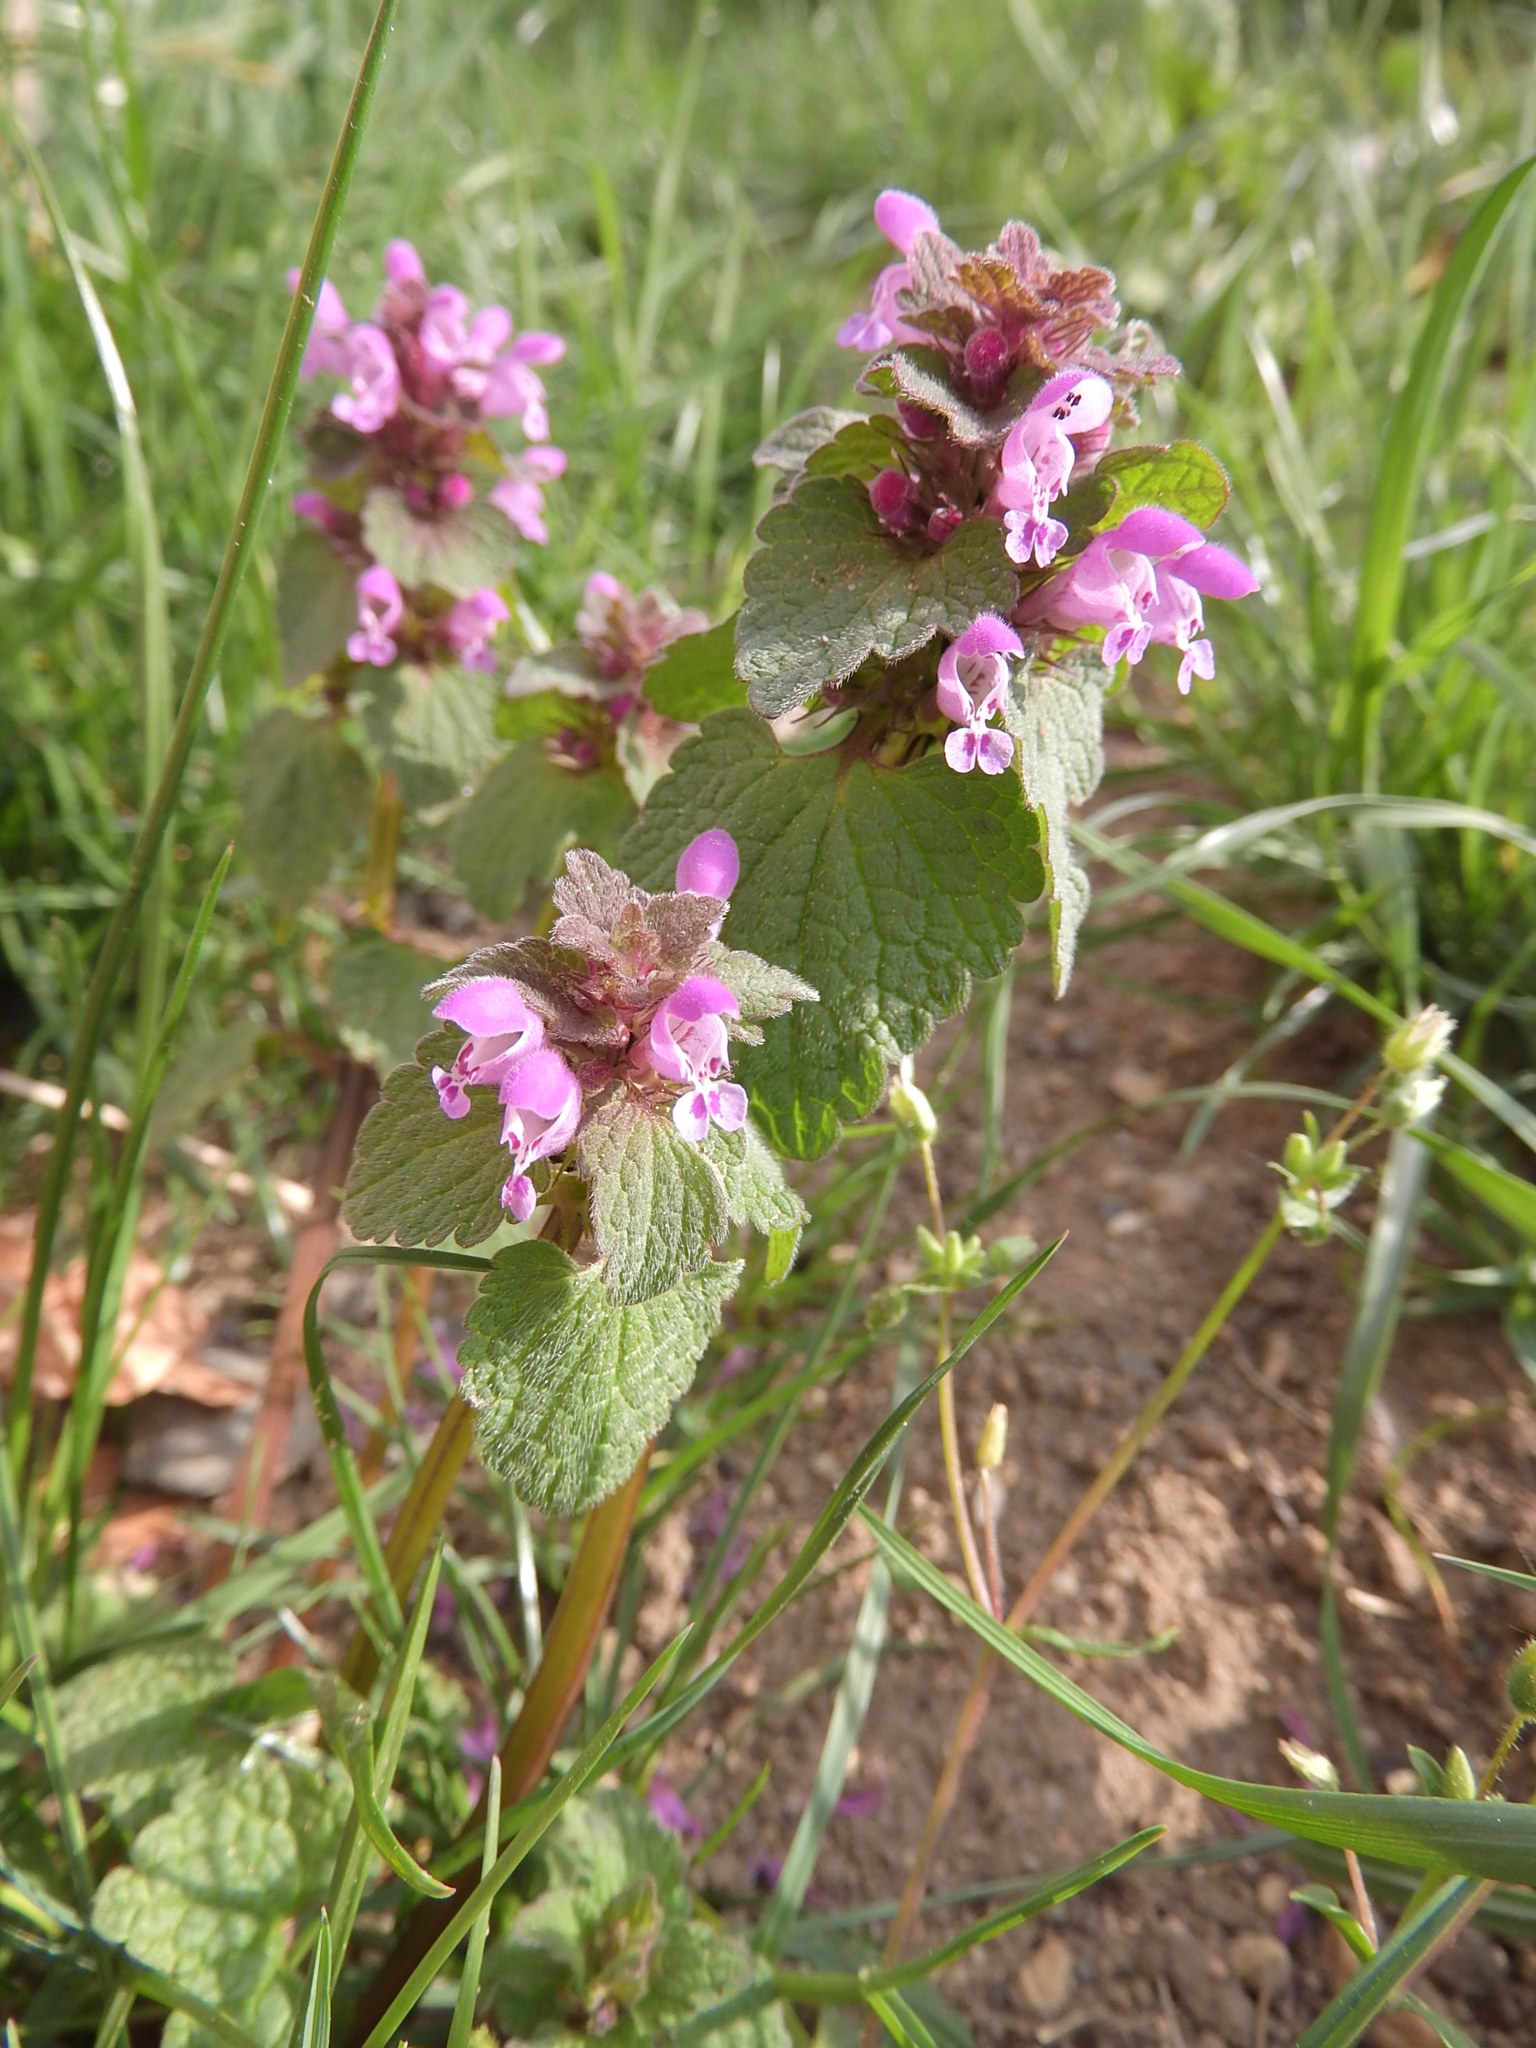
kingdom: Plantae
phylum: Tracheophyta
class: Magnoliopsida
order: Lamiales
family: Lamiaceae
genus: Lamium
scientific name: Lamium purpureum
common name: Red dead-nettle
